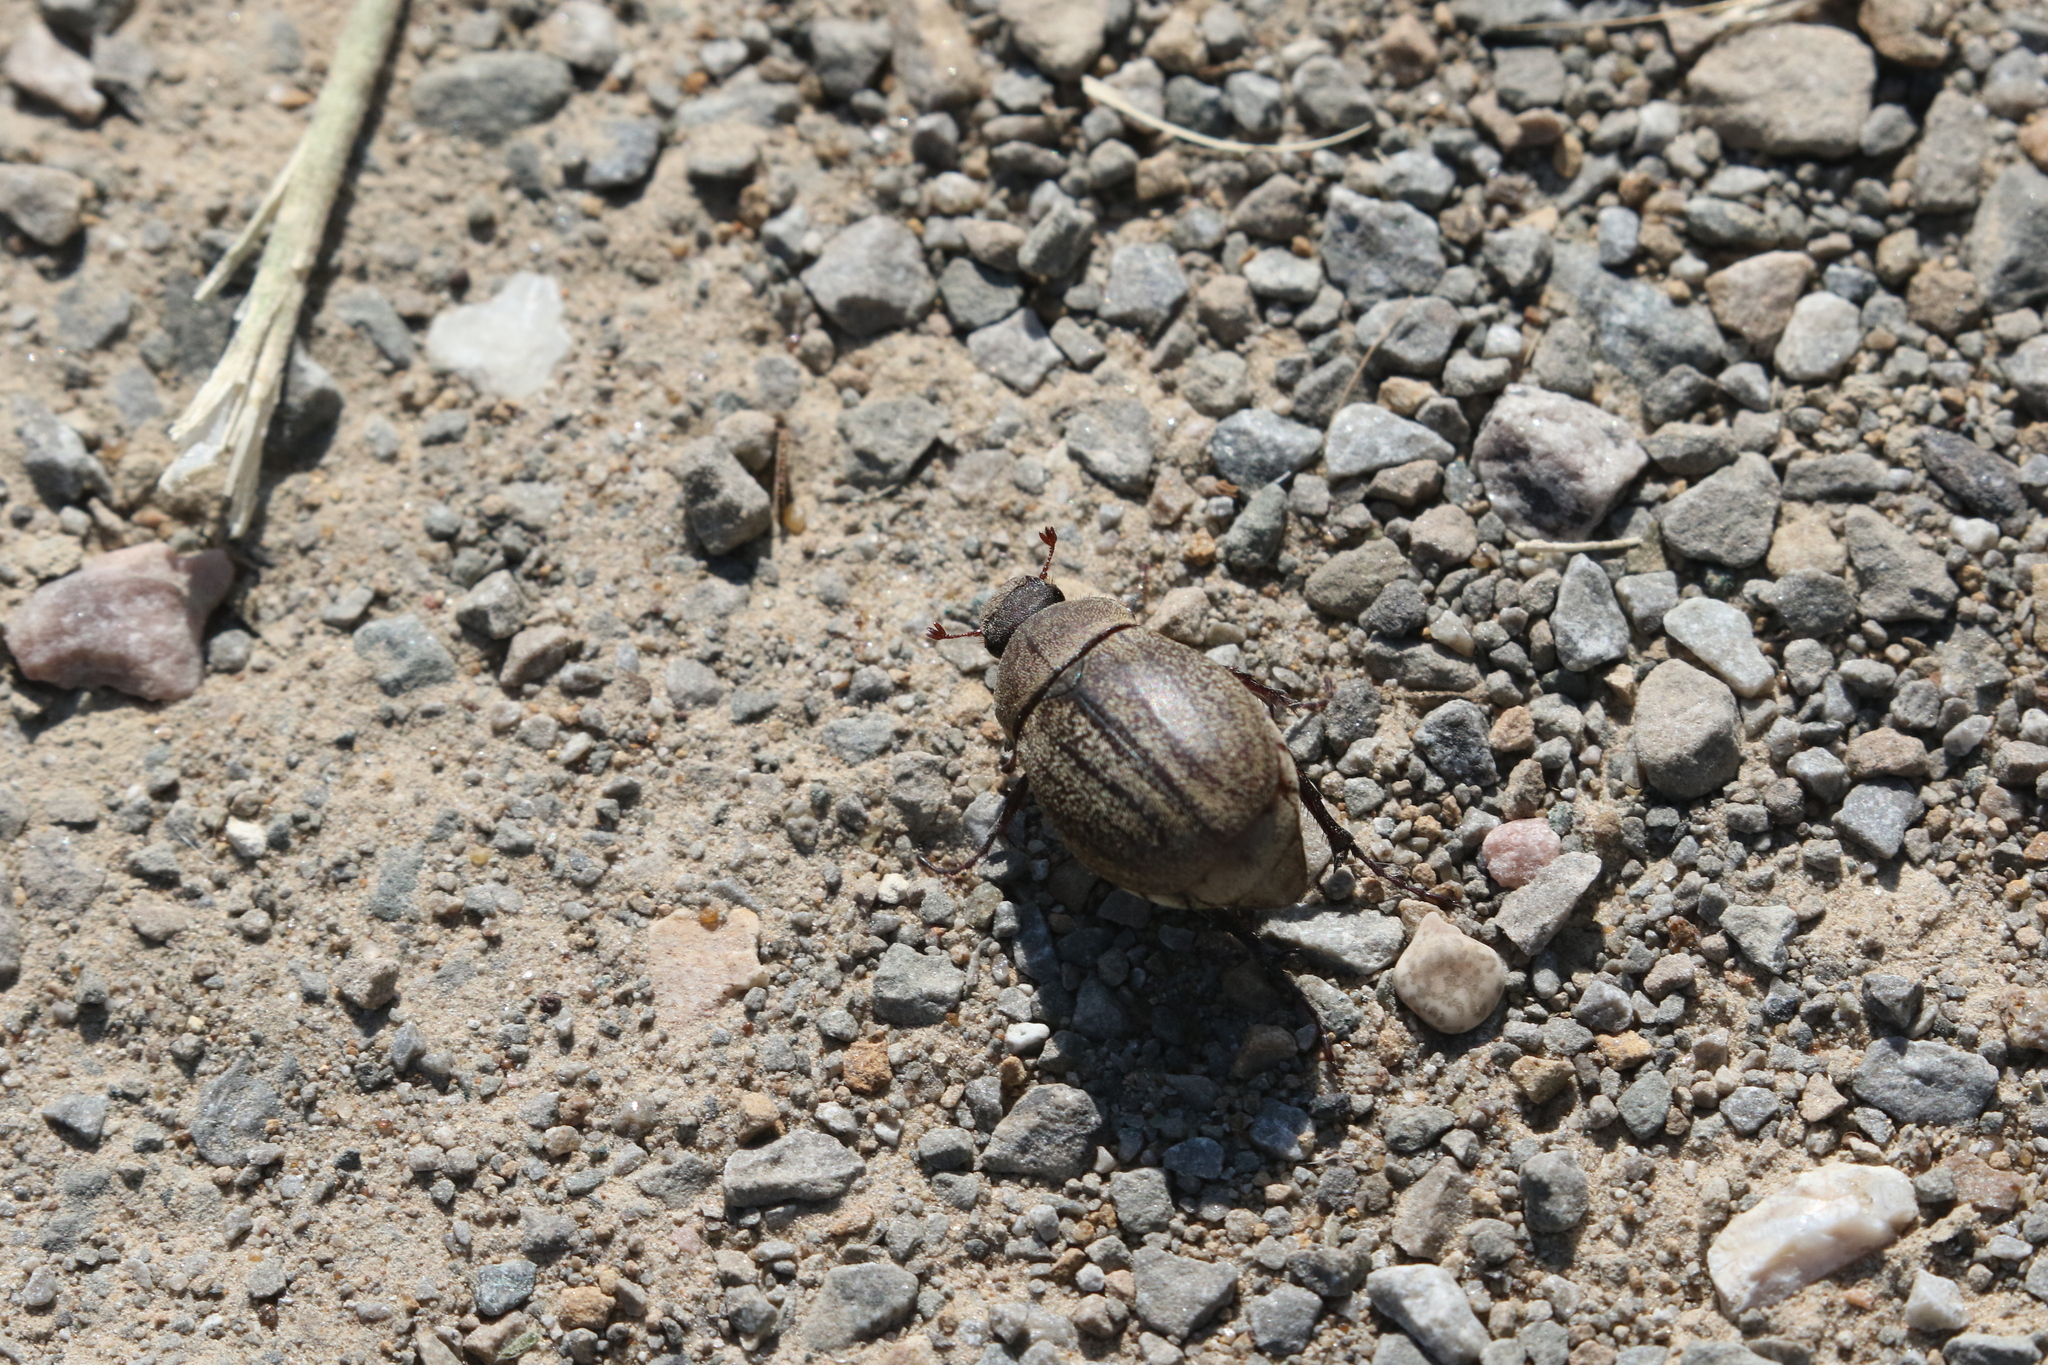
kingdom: Animalia
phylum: Arthropoda
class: Insecta
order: Coleoptera
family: Scarabaeidae
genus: Phyllophaga
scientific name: Phyllophaga lanceolata
